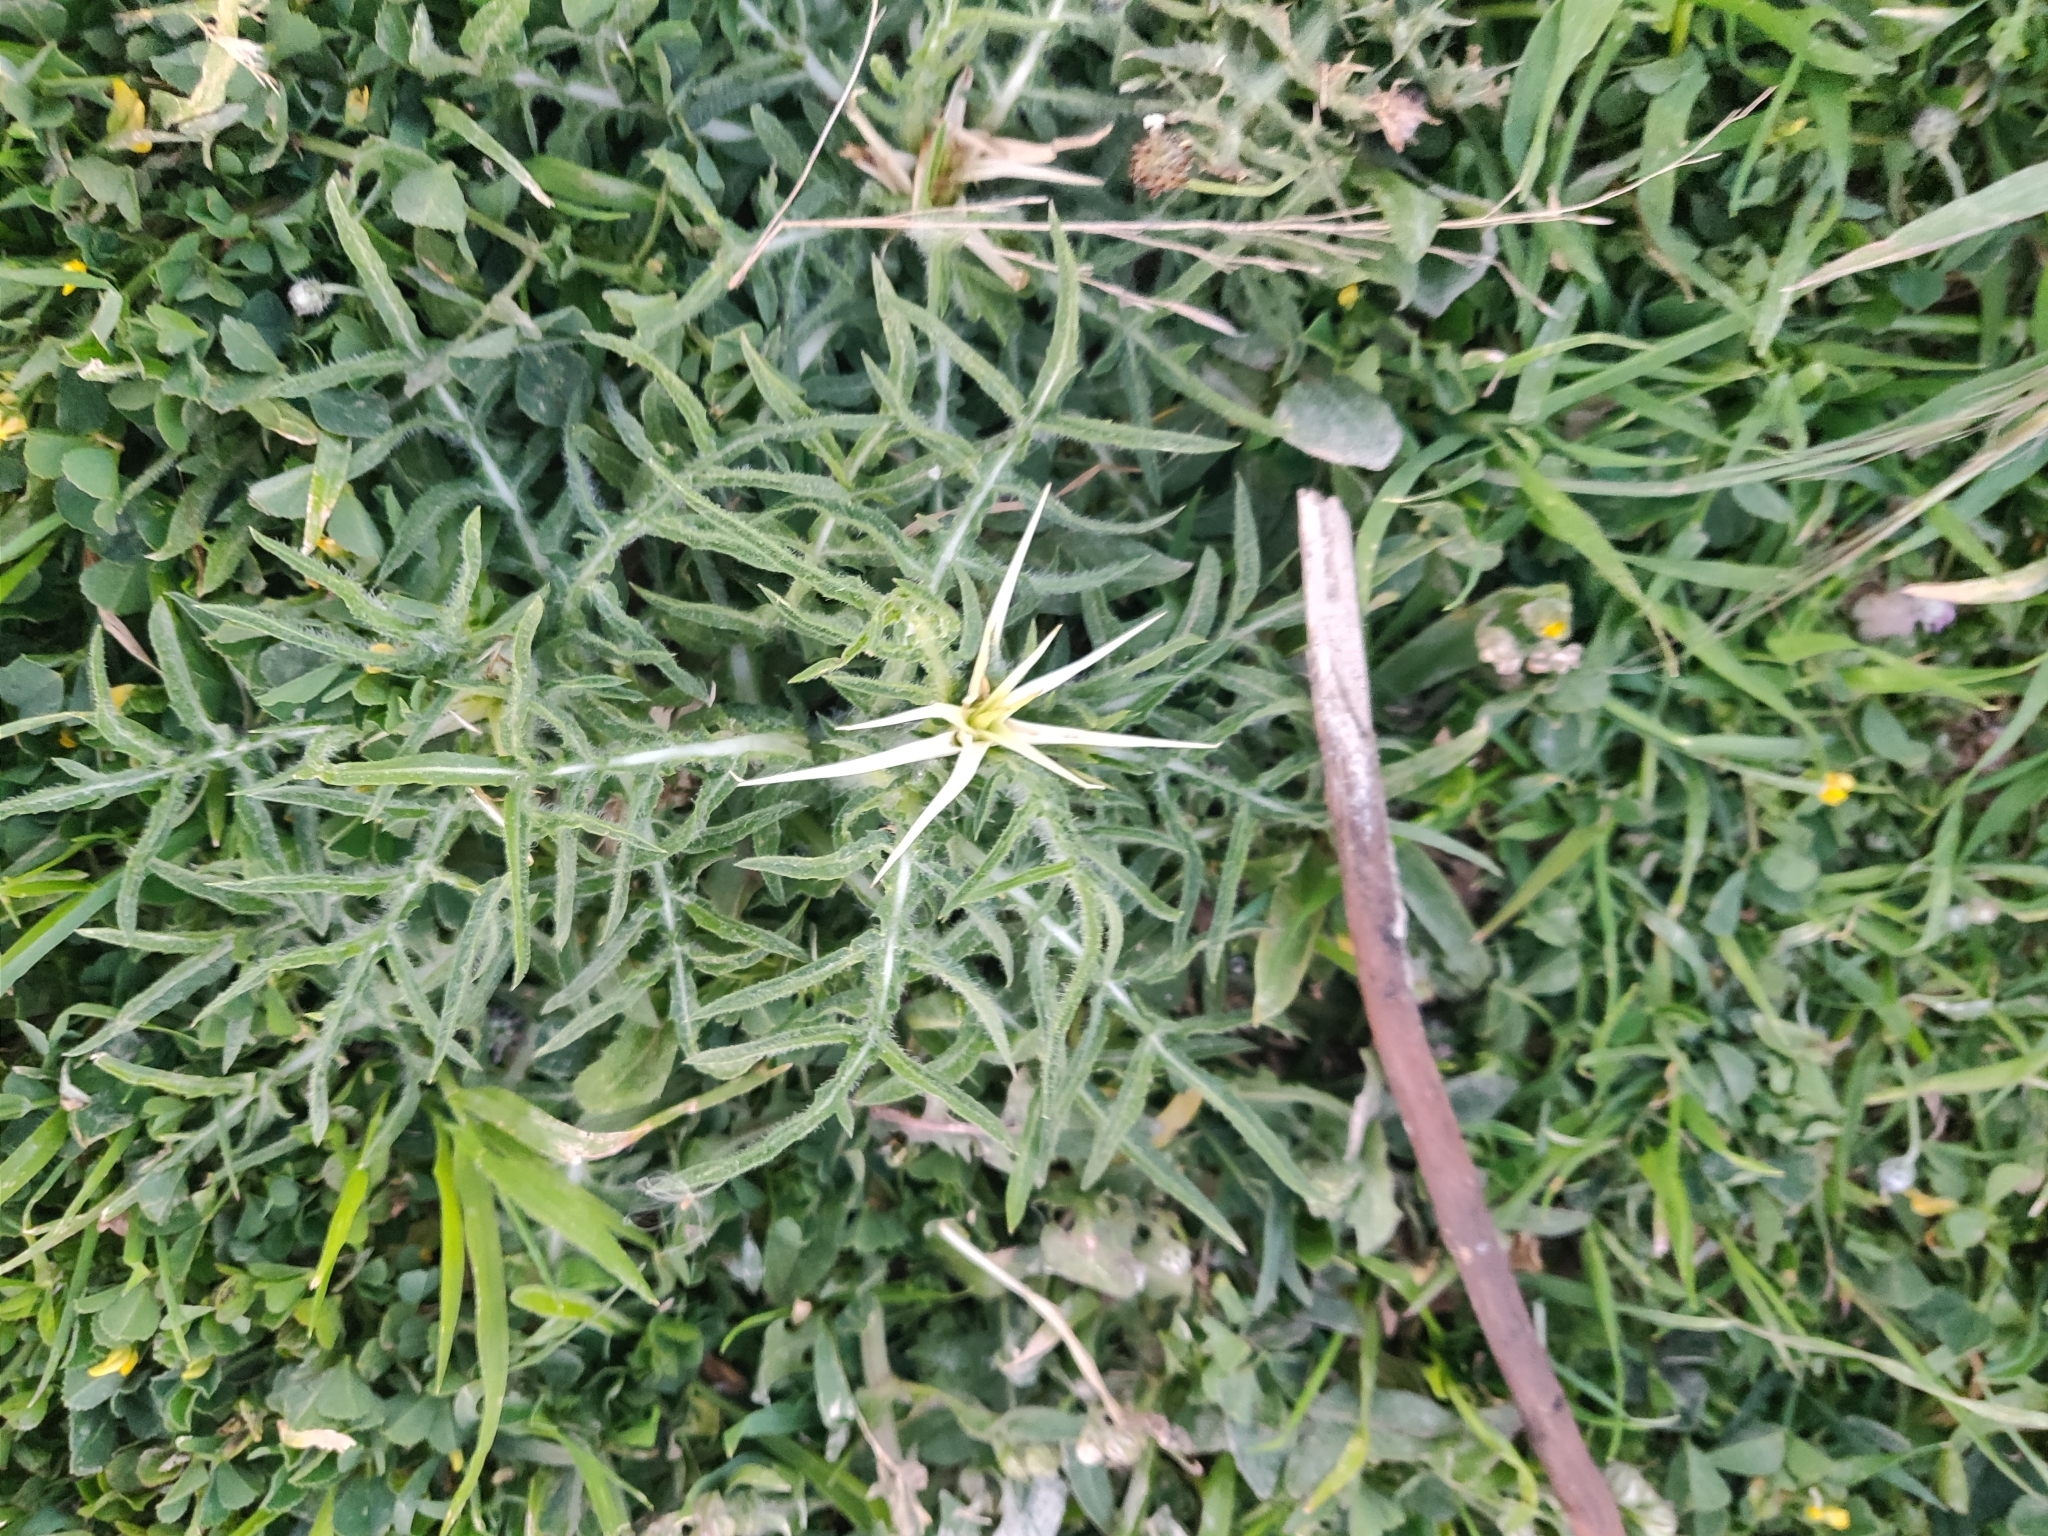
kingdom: Plantae
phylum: Tracheophyta
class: Magnoliopsida
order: Asterales
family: Asteraceae
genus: Centaurea
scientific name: Centaurea calcitrapa
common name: Red star-thistle
